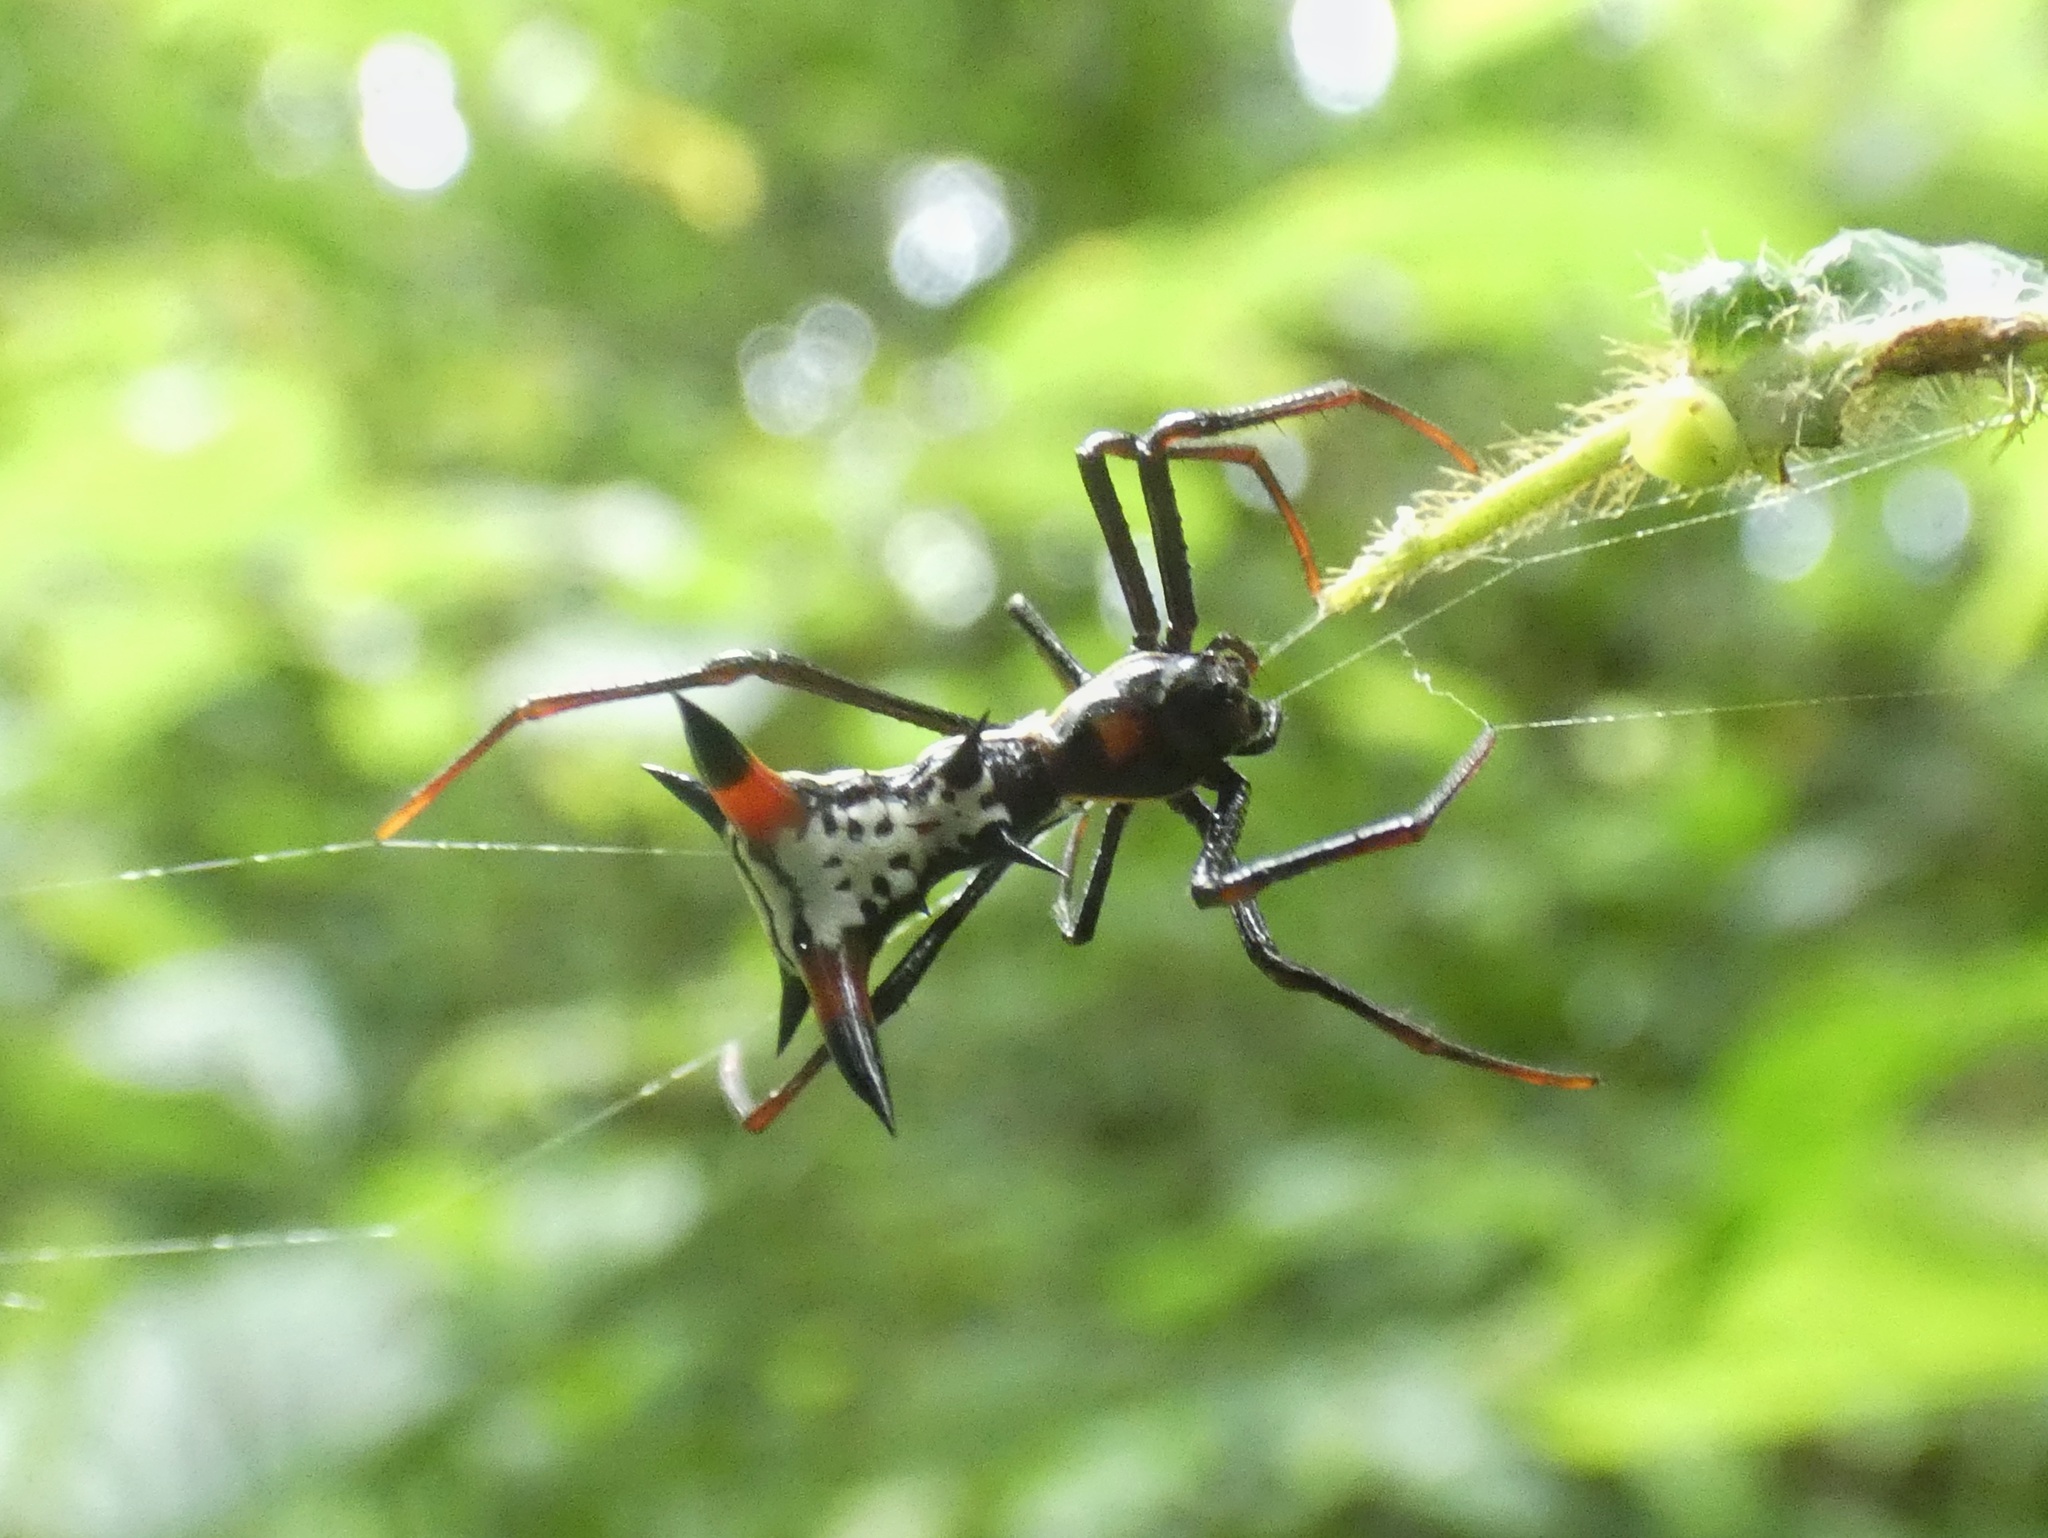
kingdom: Animalia
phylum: Arthropoda
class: Arachnida
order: Araneae
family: Araneidae
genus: Micrathena
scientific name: Micrathena schreibersi
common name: Orb weavers
